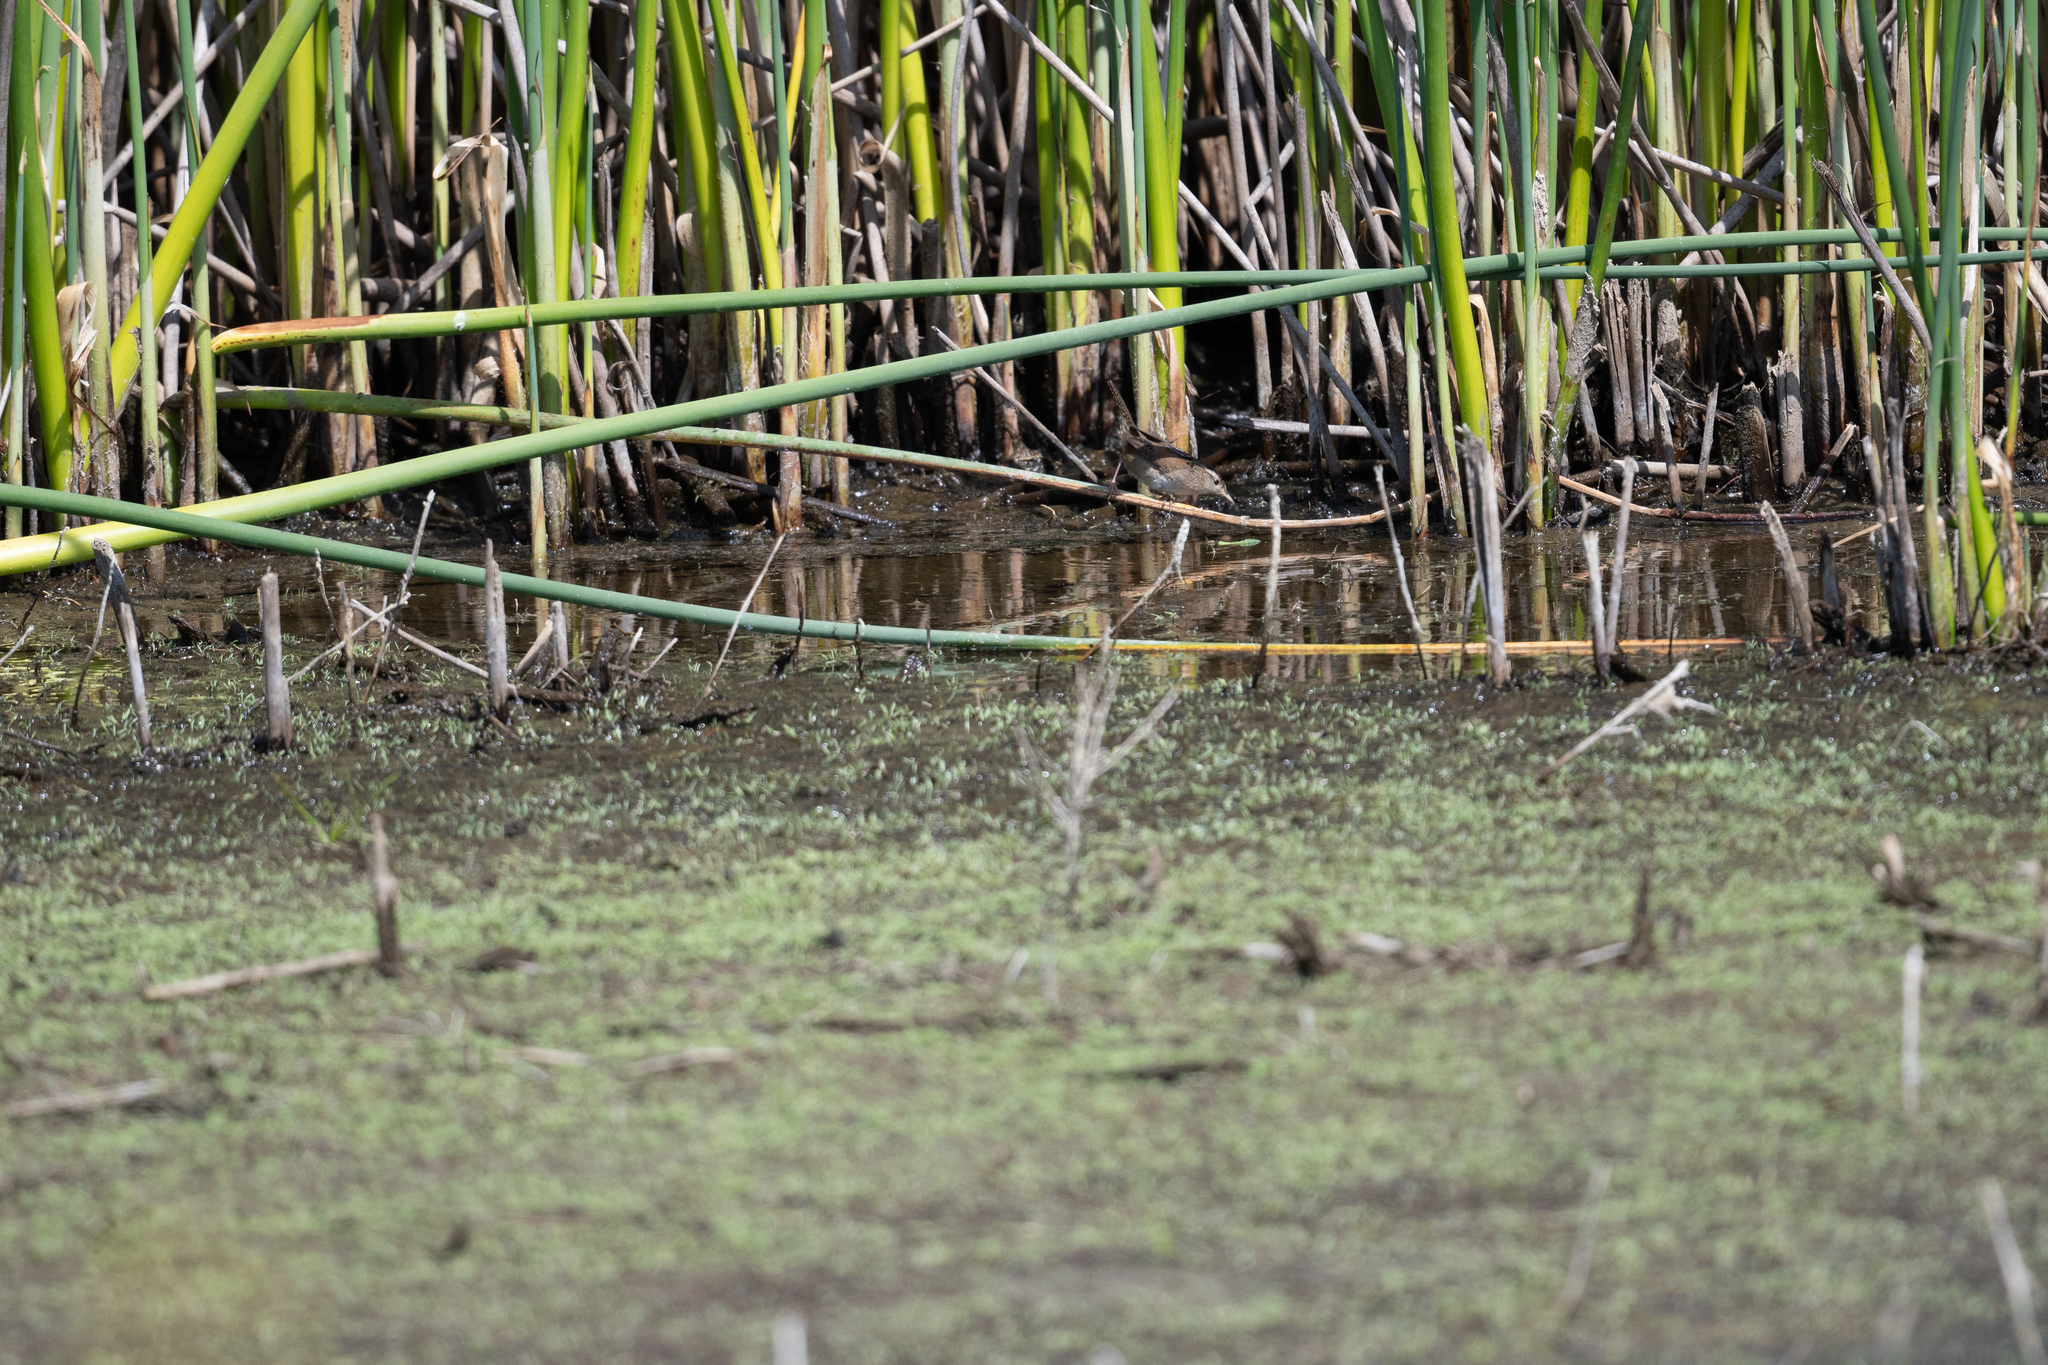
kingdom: Animalia
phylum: Chordata
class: Aves
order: Passeriformes
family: Troglodytidae
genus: Cistothorus
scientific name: Cistothorus palustris
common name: Marsh wren
